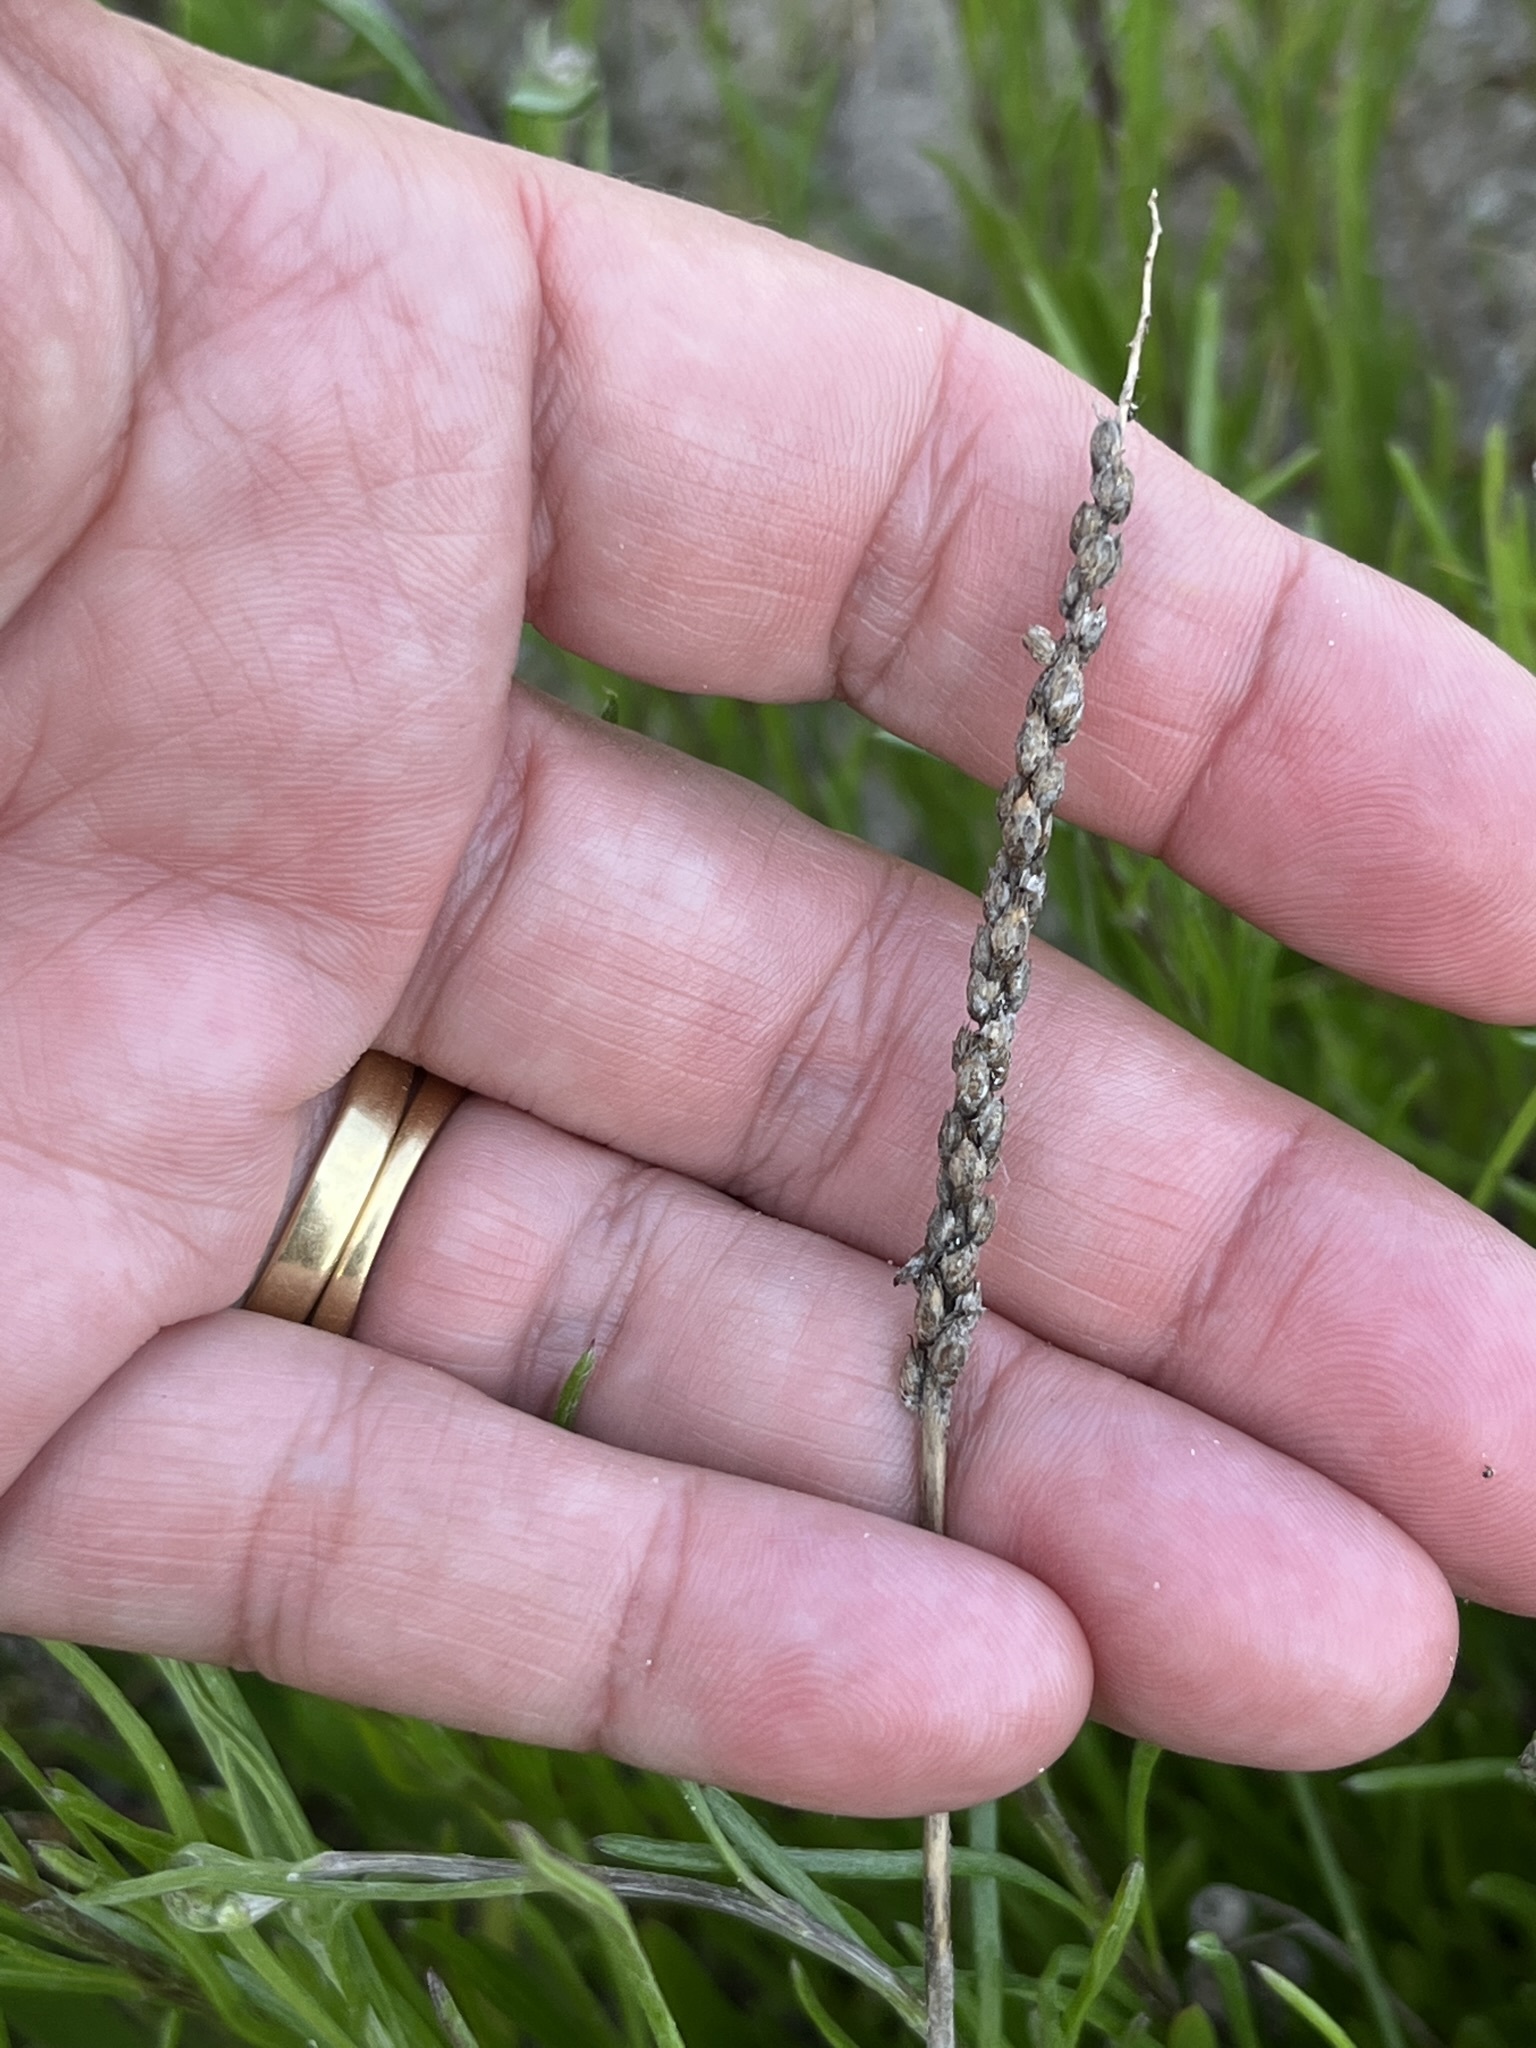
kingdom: Plantae
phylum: Tracheophyta
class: Magnoliopsida
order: Caryophyllales
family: Amaranthaceae
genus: Salicornia
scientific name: Salicornia capensis
